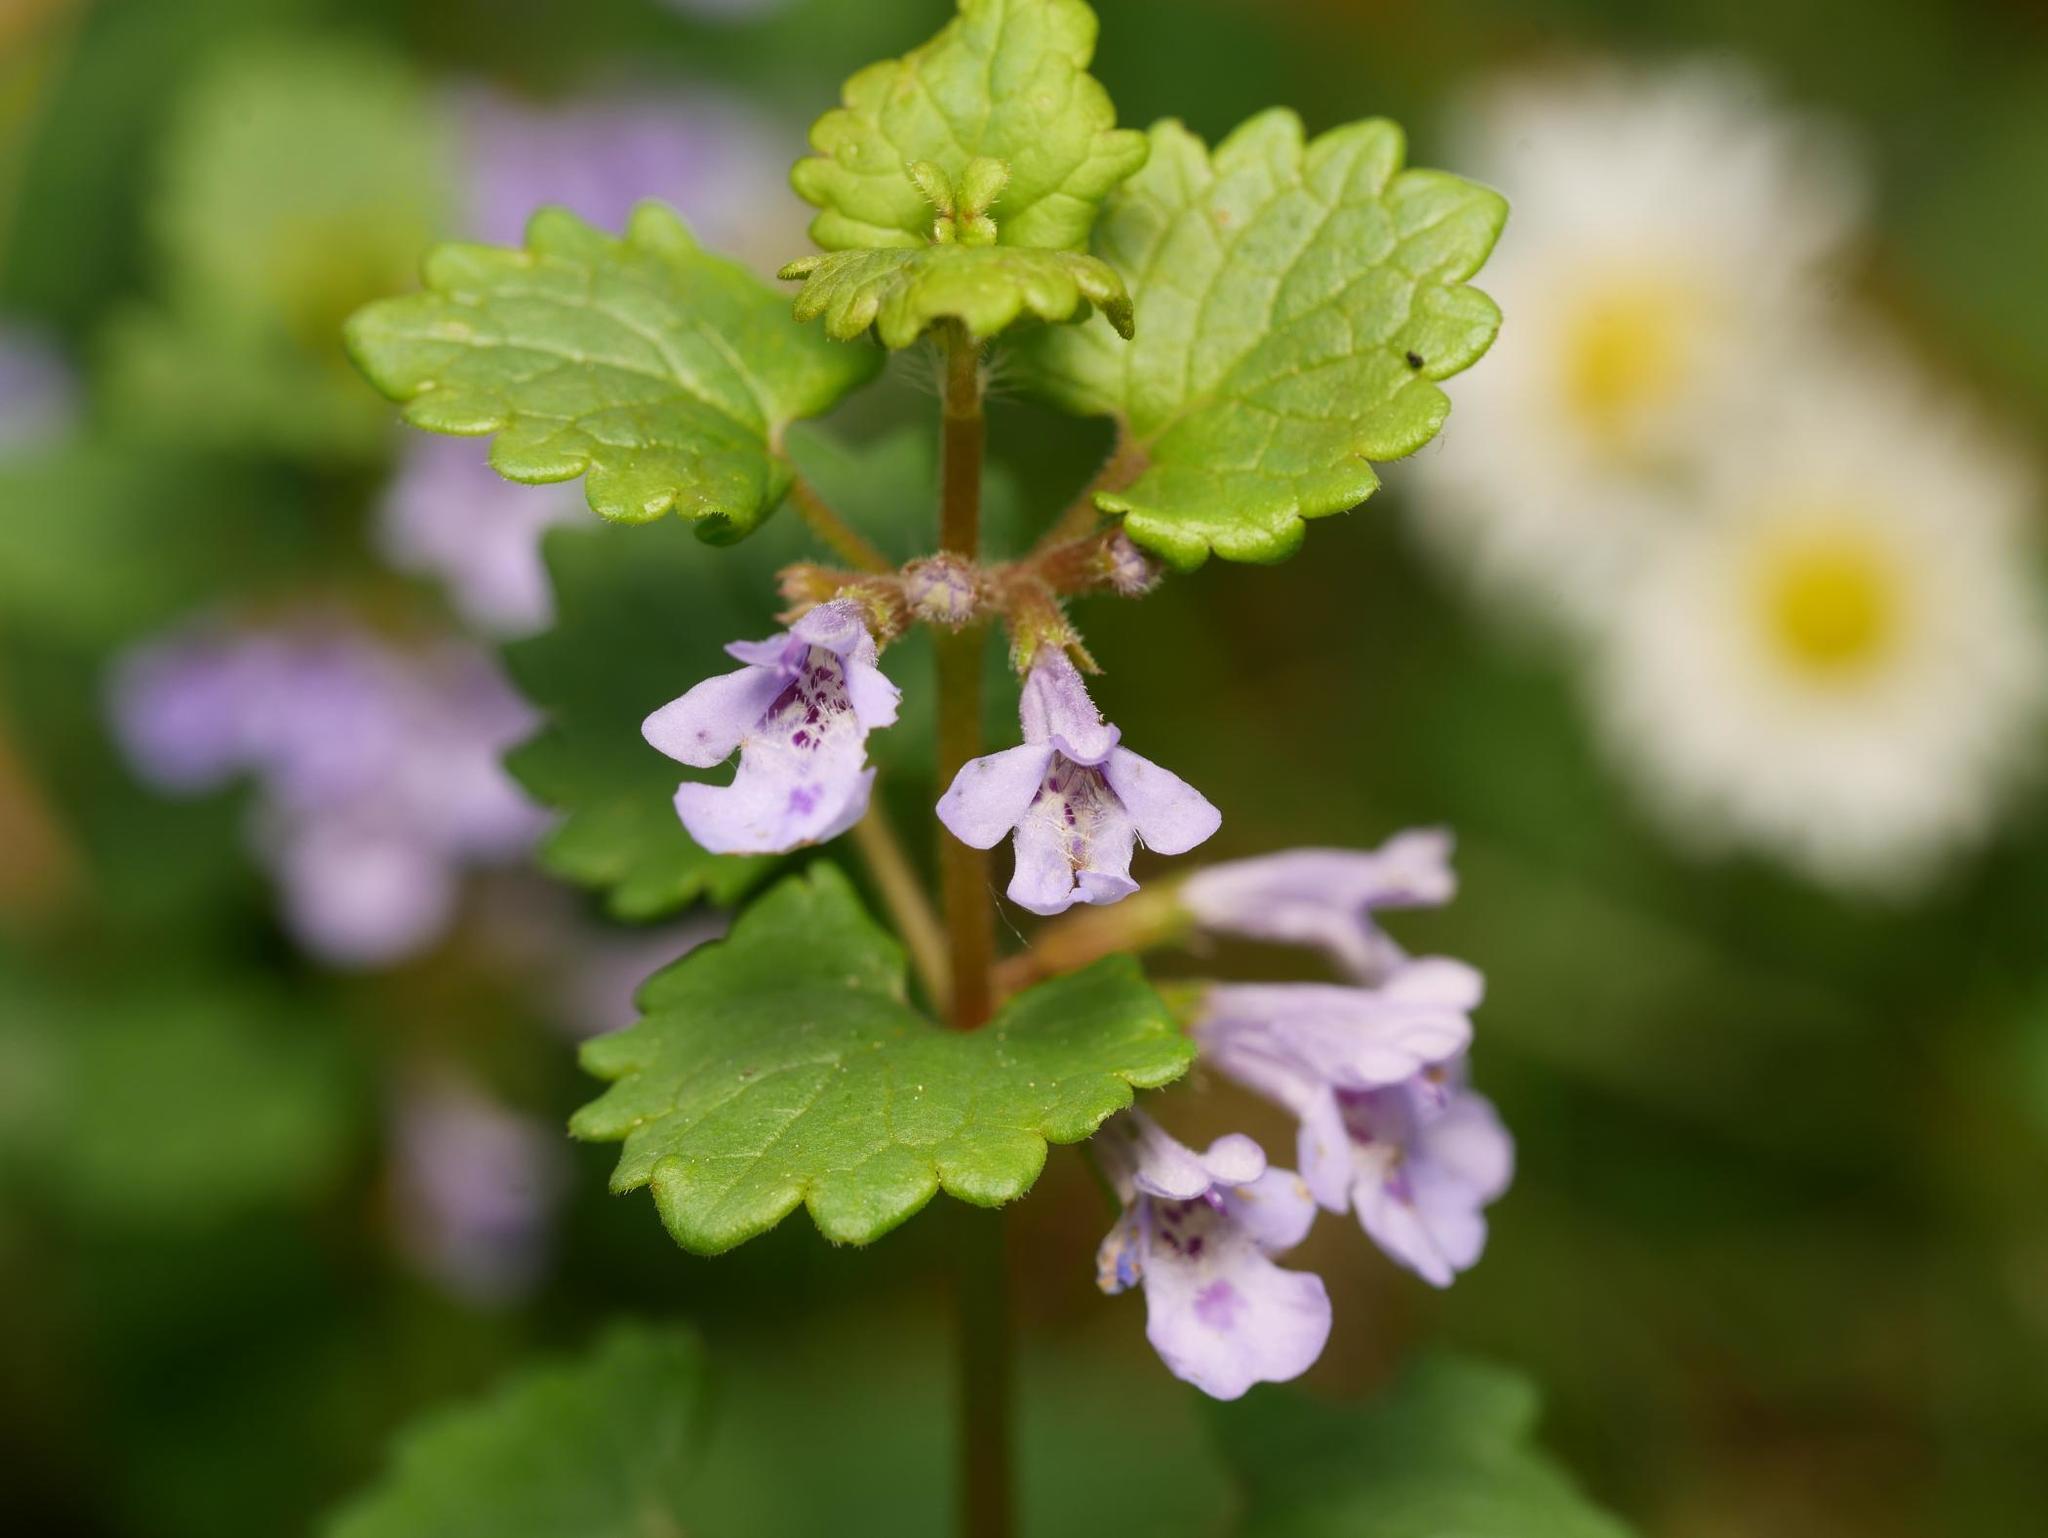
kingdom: Plantae
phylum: Tracheophyta
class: Magnoliopsida
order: Lamiales
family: Lamiaceae
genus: Glechoma
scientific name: Glechoma hederacea
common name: Ground ivy
